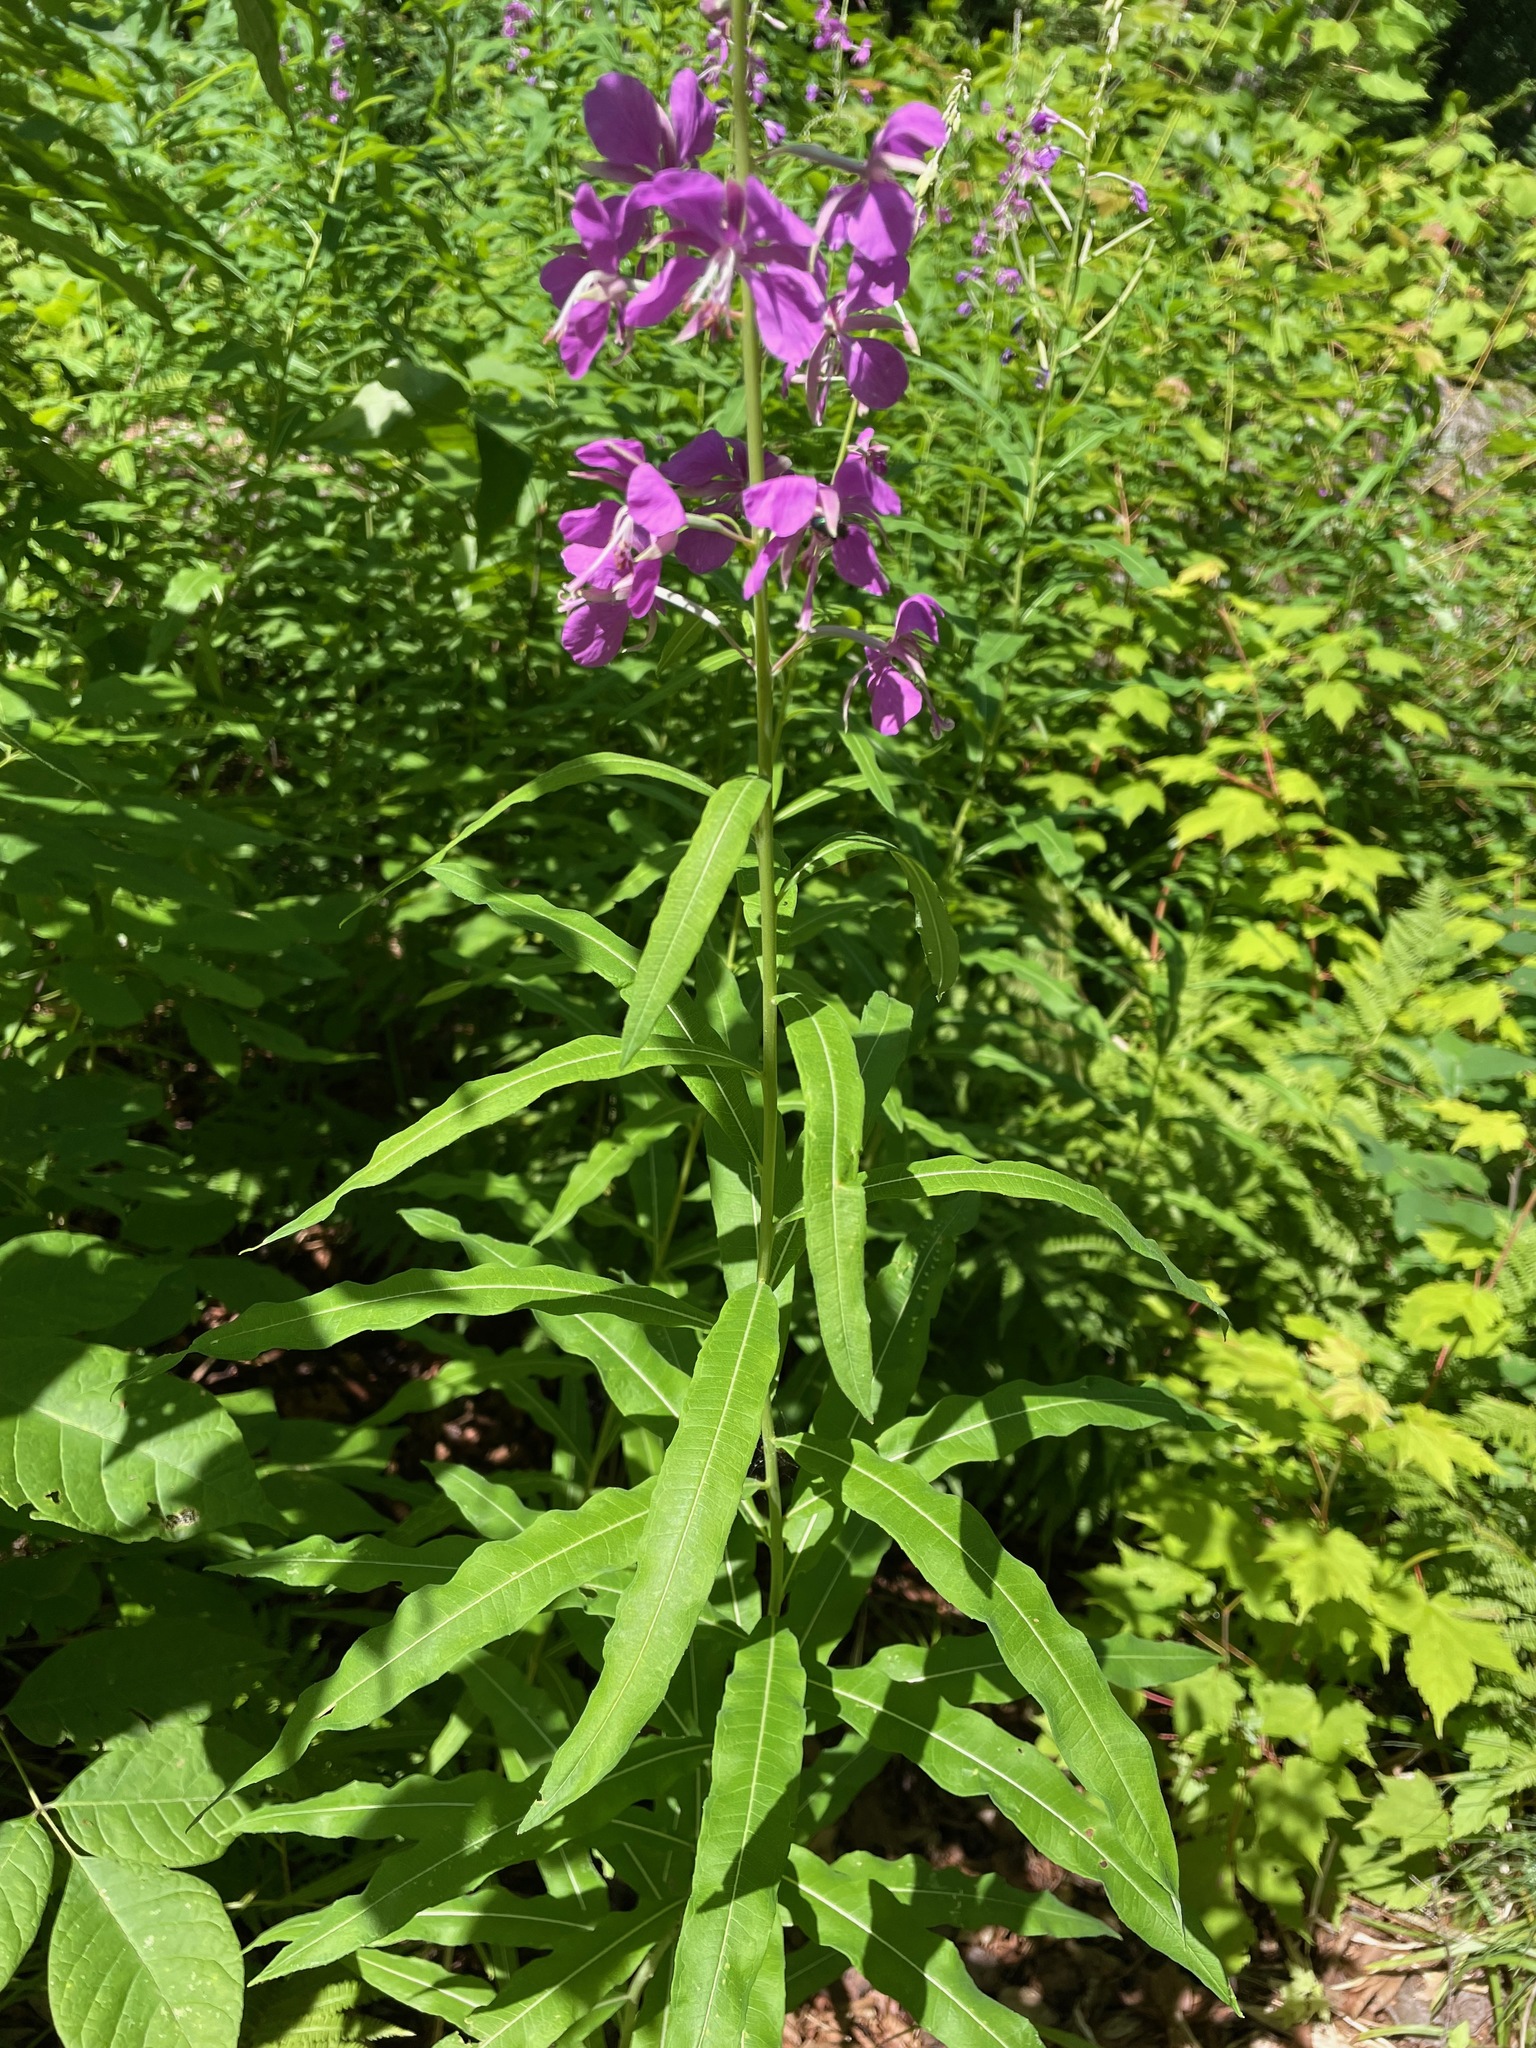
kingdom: Plantae
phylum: Tracheophyta
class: Magnoliopsida
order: Myrtales
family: Onagraceae
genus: Chamaenerion
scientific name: Chamaenerion angustifolium
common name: Fireweed
